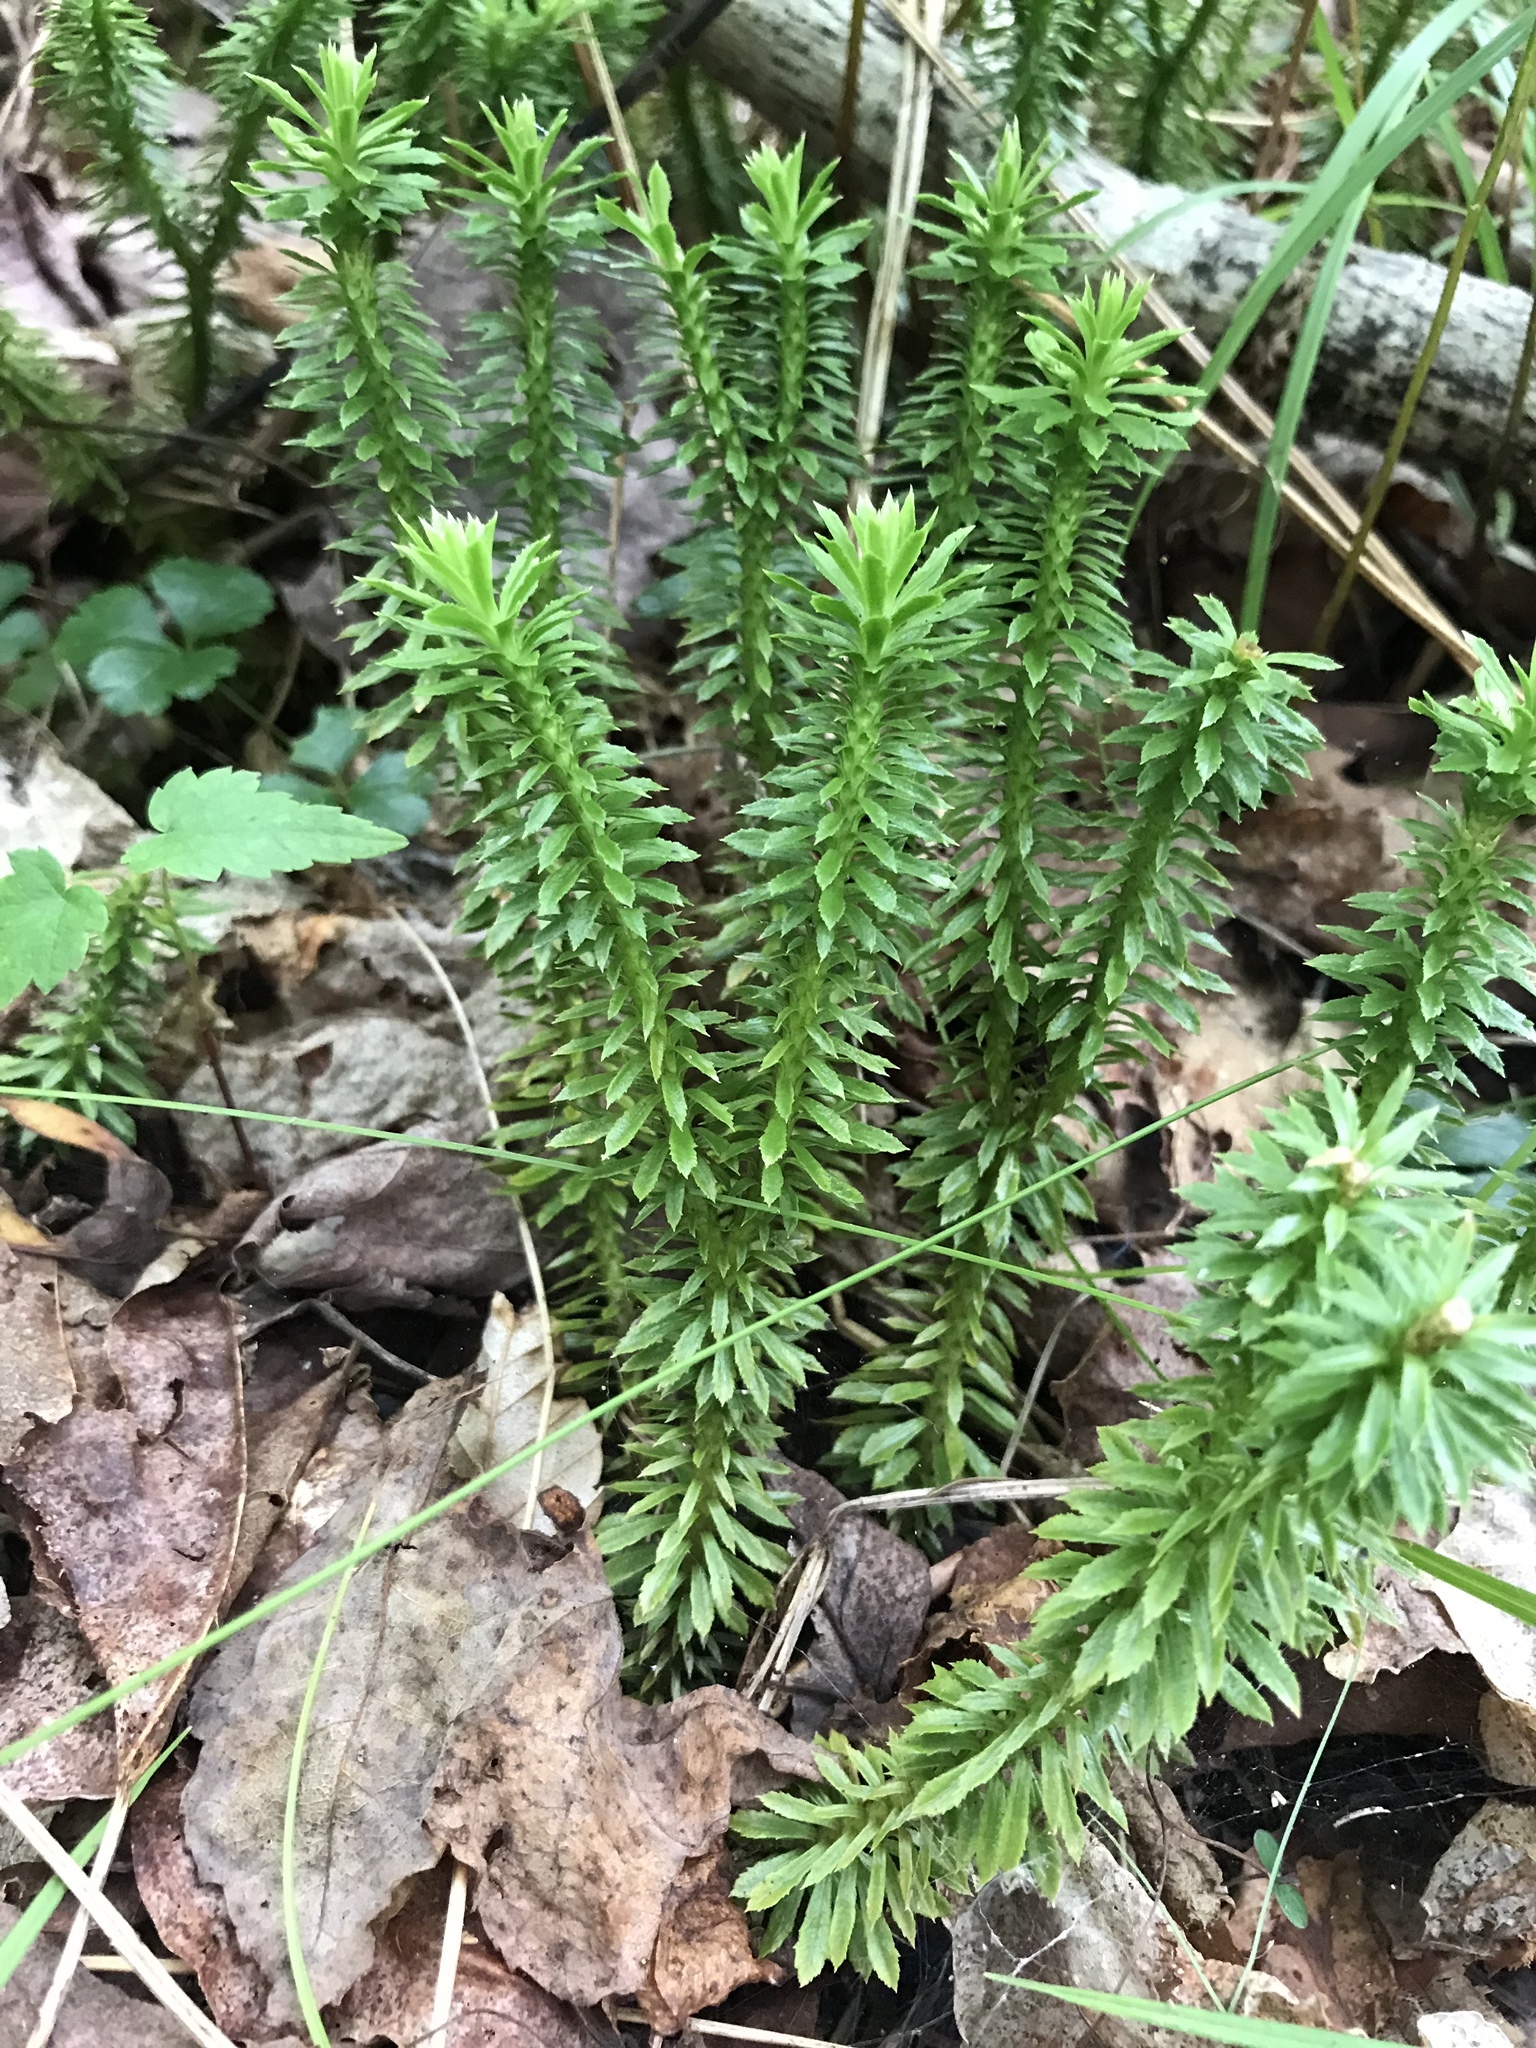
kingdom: Plantae
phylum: Tracheophyta
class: Lycopodiopsida
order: Lycopodiales
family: Lycopodiaceae
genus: Huperzia
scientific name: Huperzia lucidula
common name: Shining clubmoss
